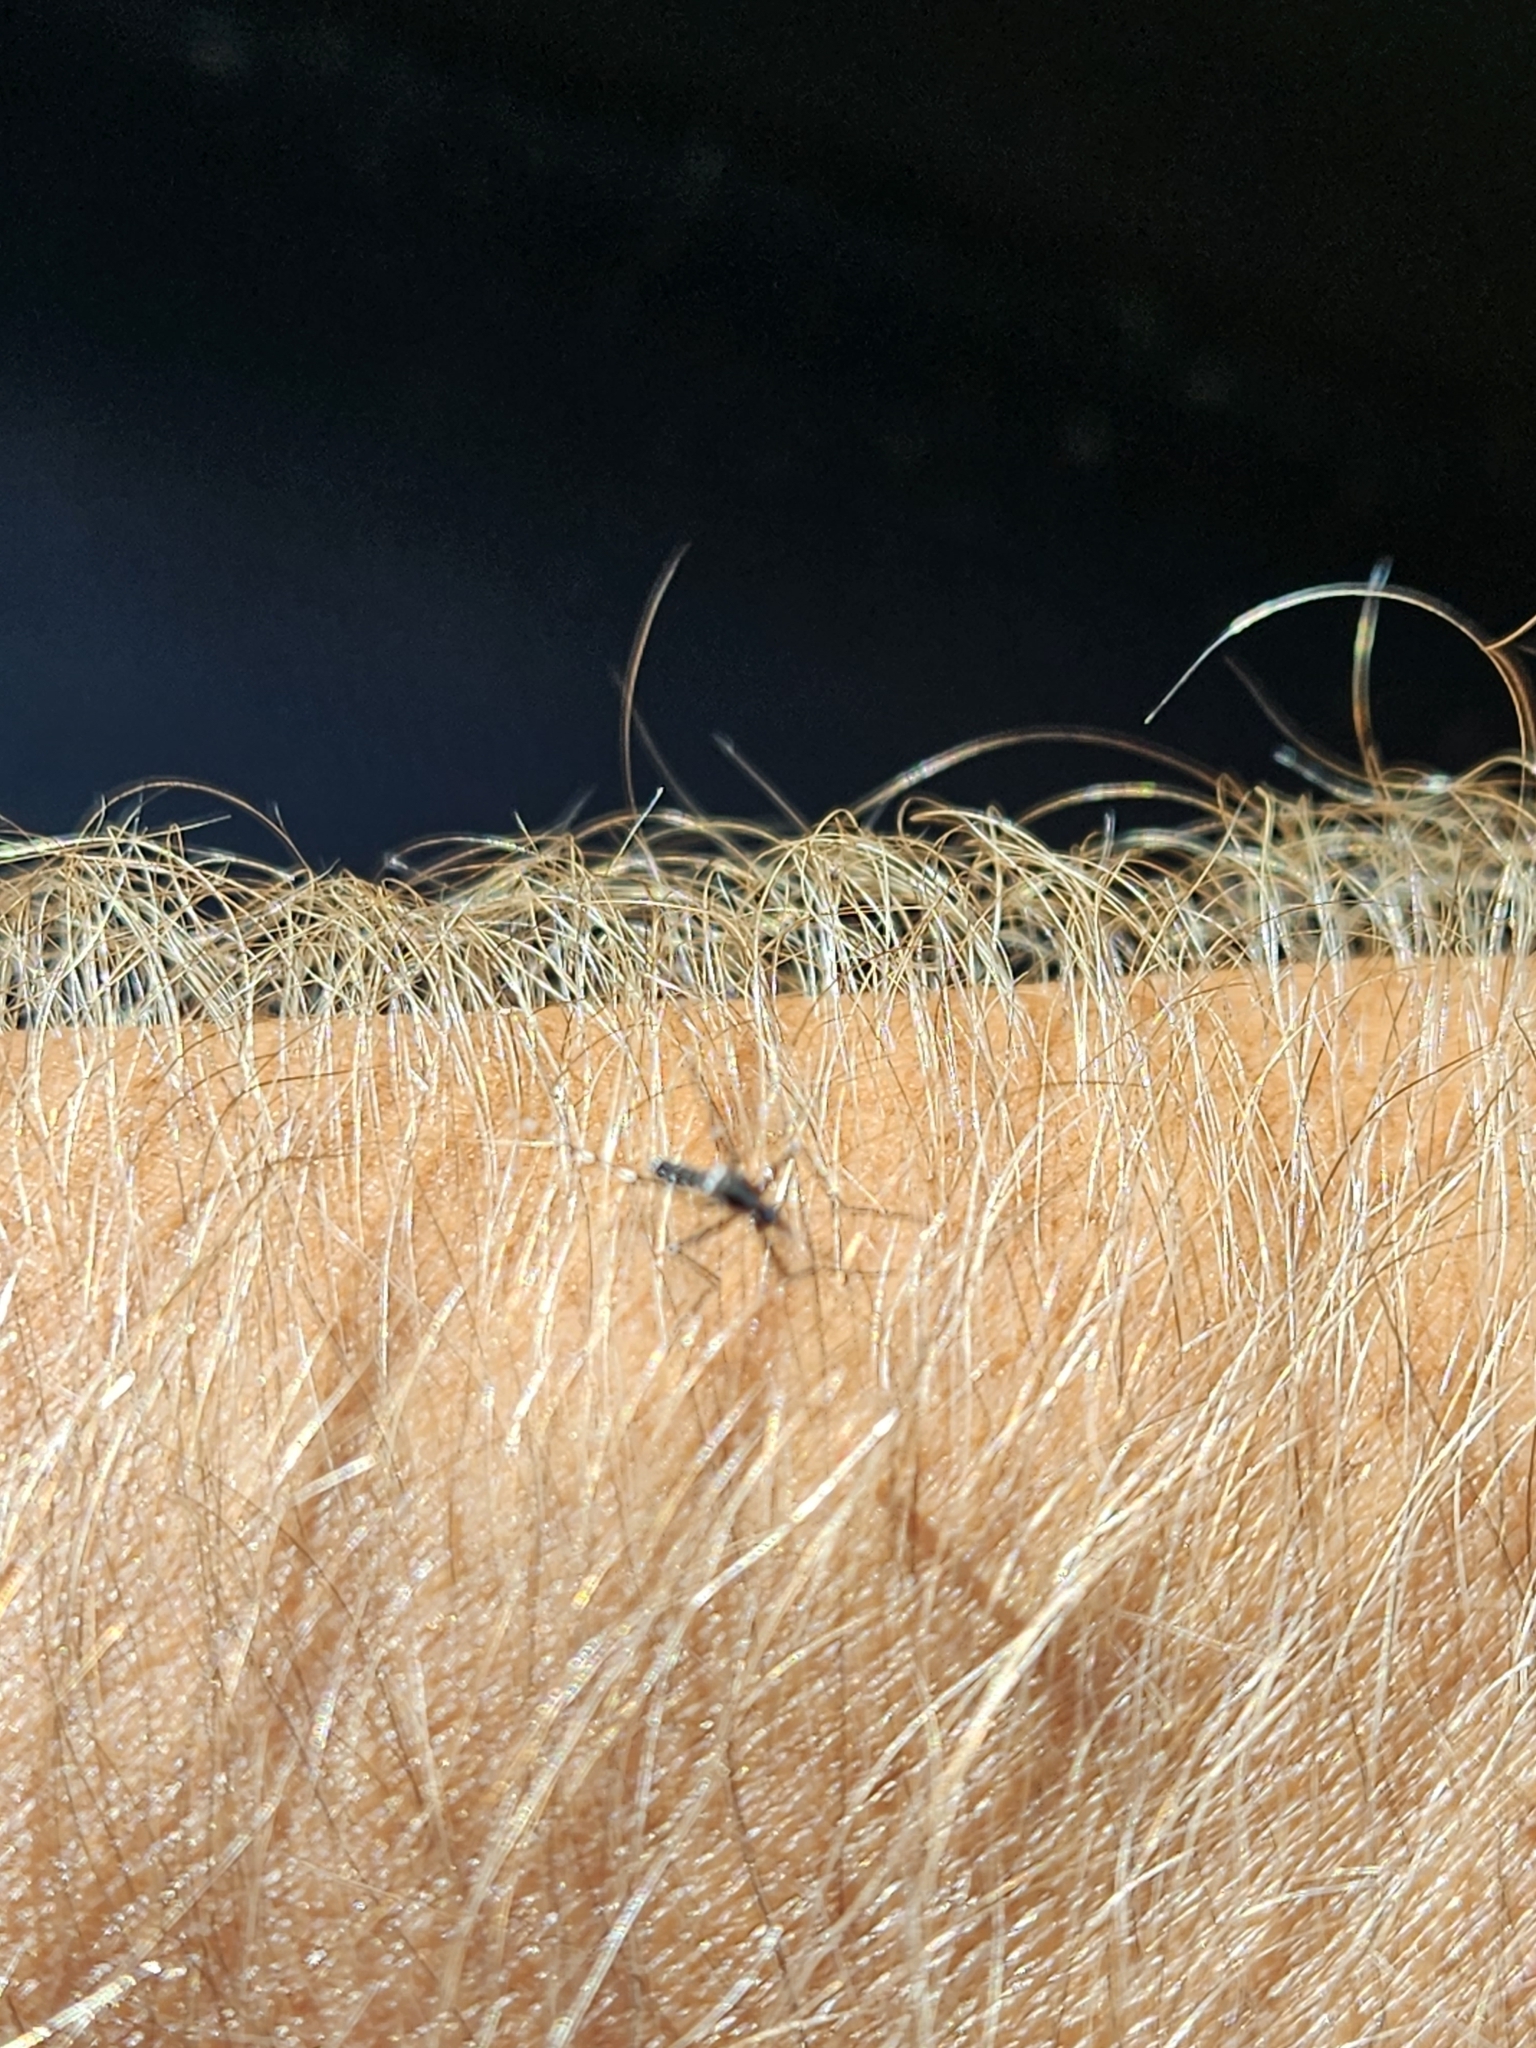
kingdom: Animalia
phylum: Arthropoda
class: Insecta
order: Diptera
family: Culicidae
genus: Aedes
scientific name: Aedes albopictus
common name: Tiger mosquito
